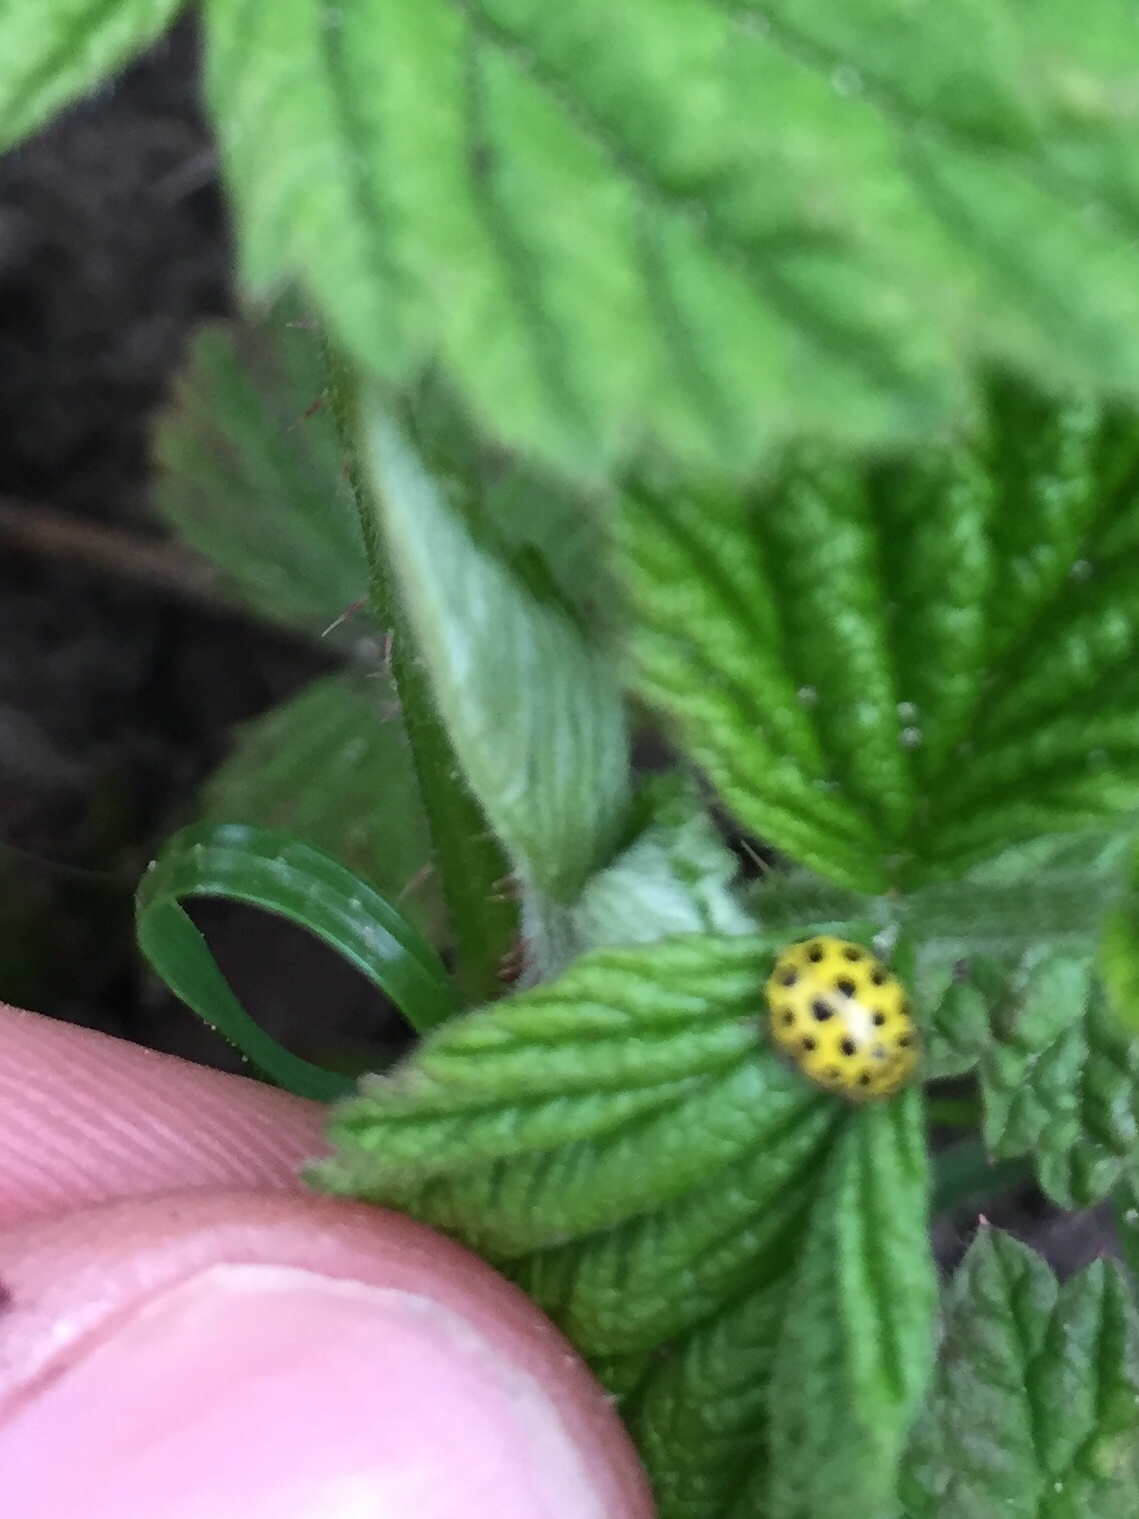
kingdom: Animalia
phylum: Arthropoda
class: Insecta
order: Coleoptera
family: Coccinellidae
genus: Psyllobora
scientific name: Psyllobora vigintiduopunctata
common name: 22-spot ladybird
